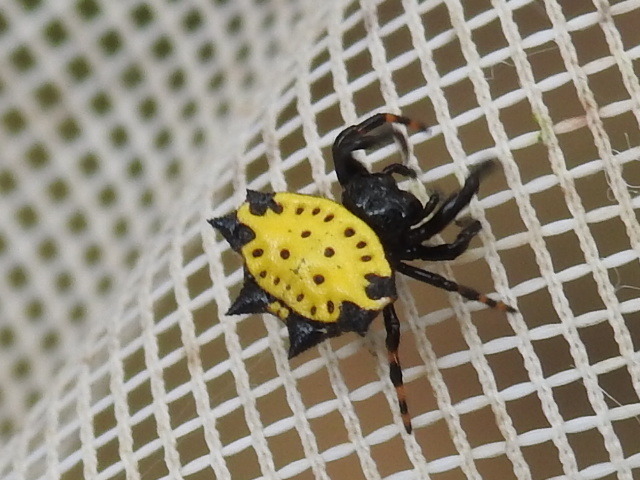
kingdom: Animalia
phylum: Arthropoda
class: Arachnida
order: Araneae
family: Araneidae
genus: Gasteracantha
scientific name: Gasteracantha cancriformis
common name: Orb weavers
